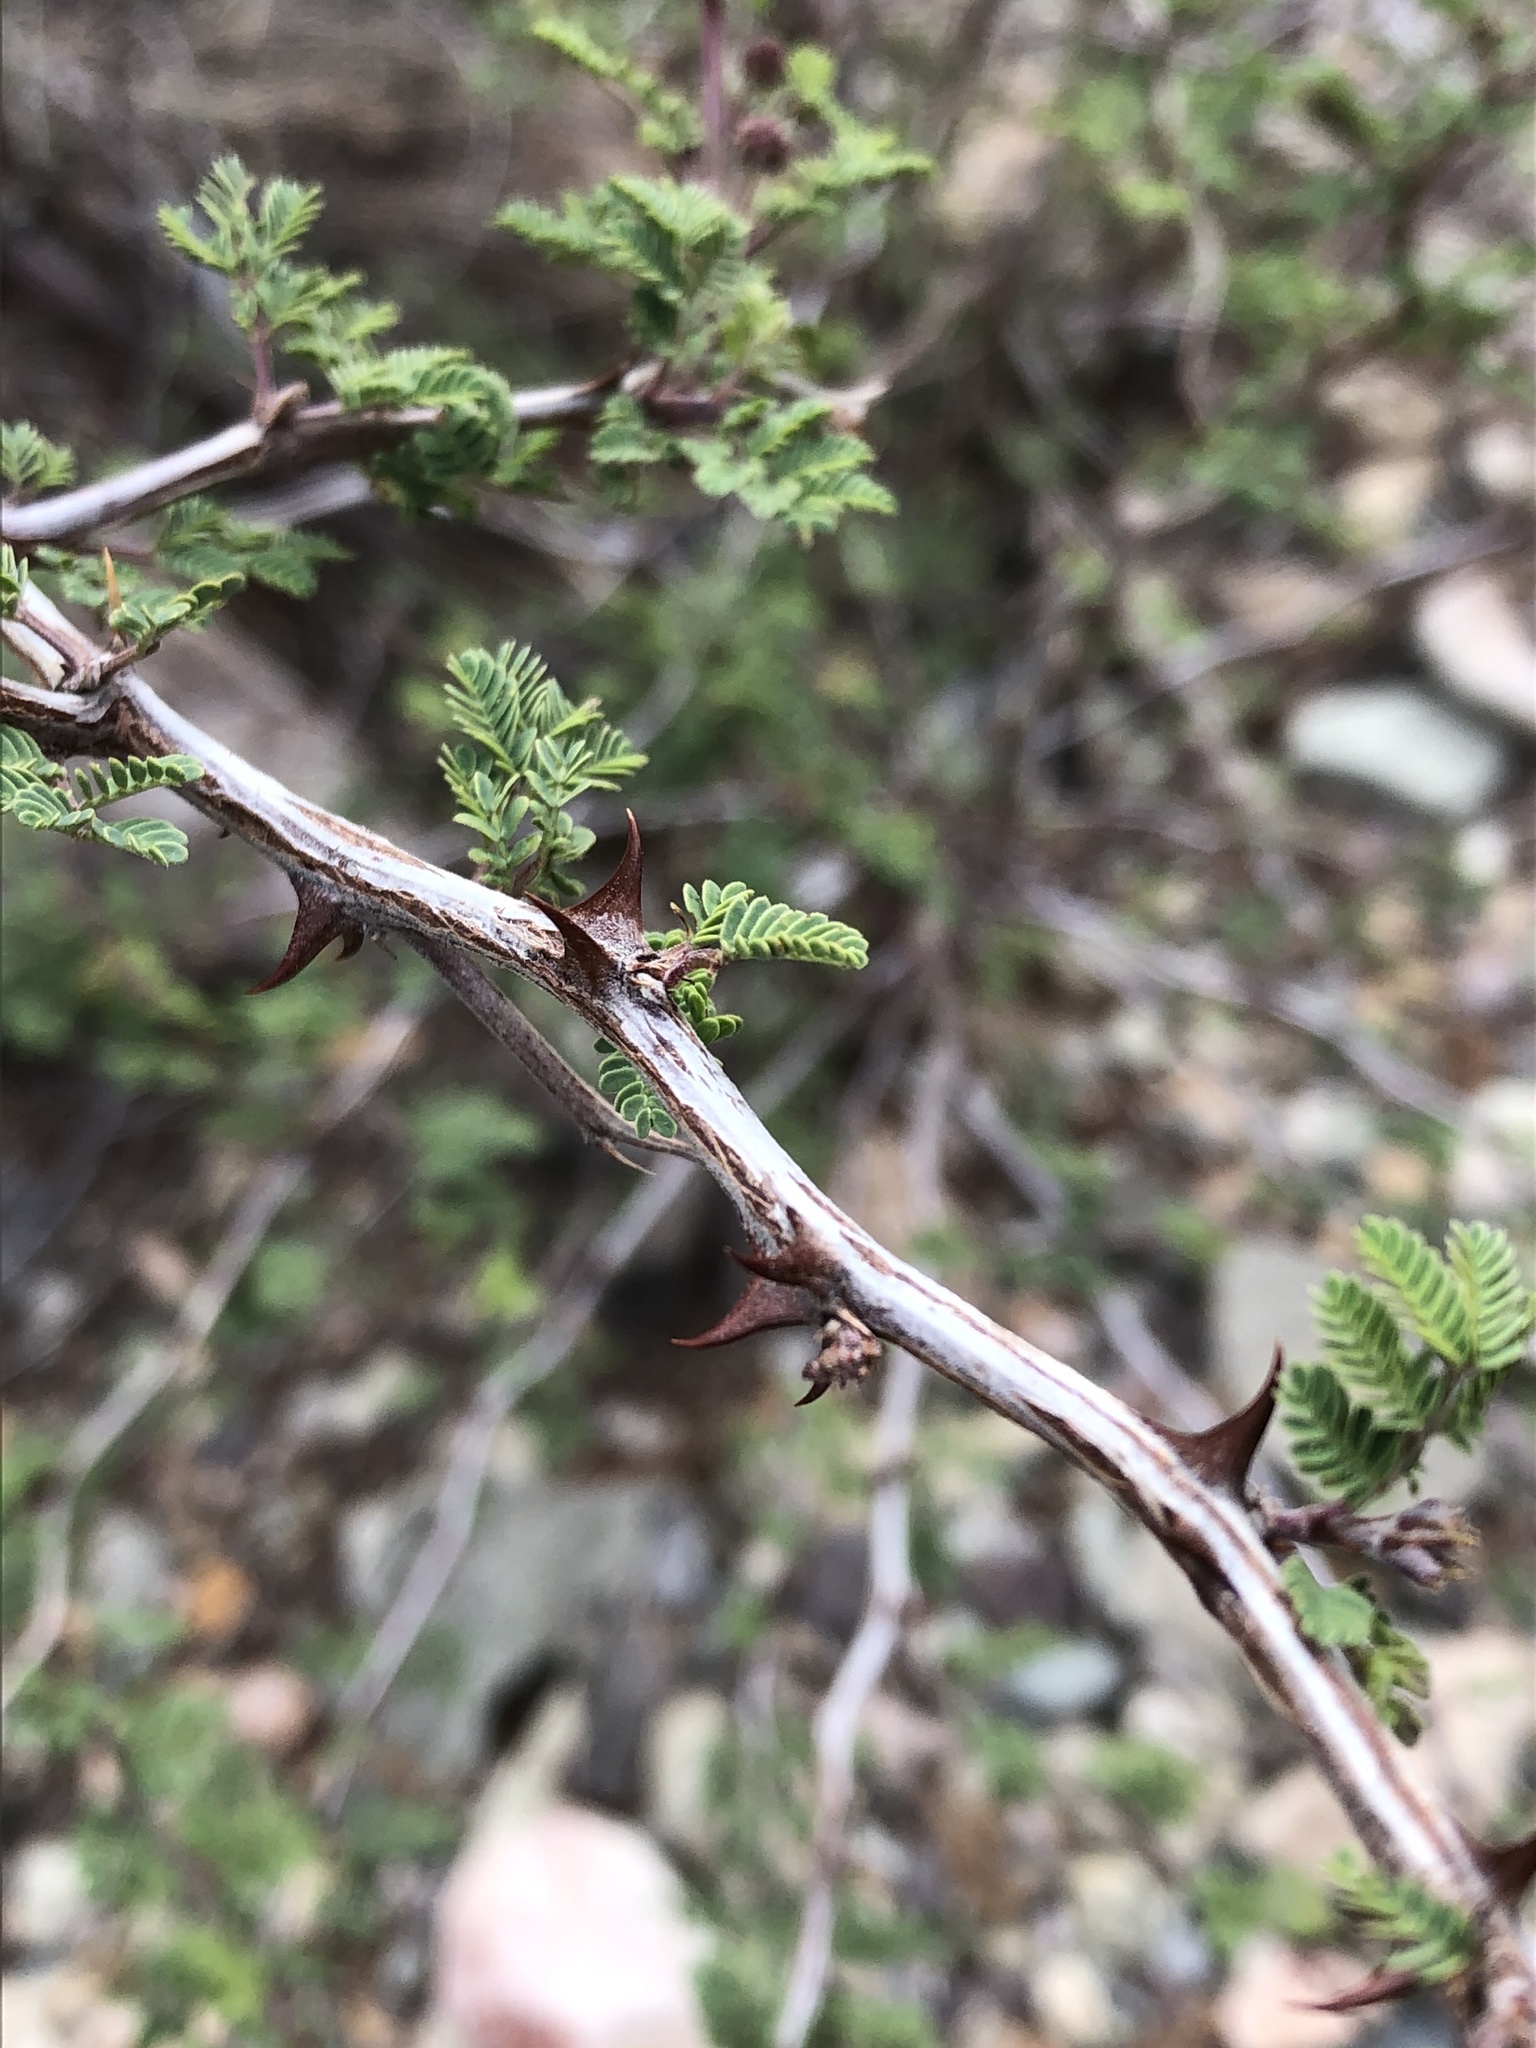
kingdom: Plantae
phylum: Tracheophyta
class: Magnoliopsida
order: Fabales
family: Fabaceae
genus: Mimosa
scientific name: Mimosa aculeaticarpa
